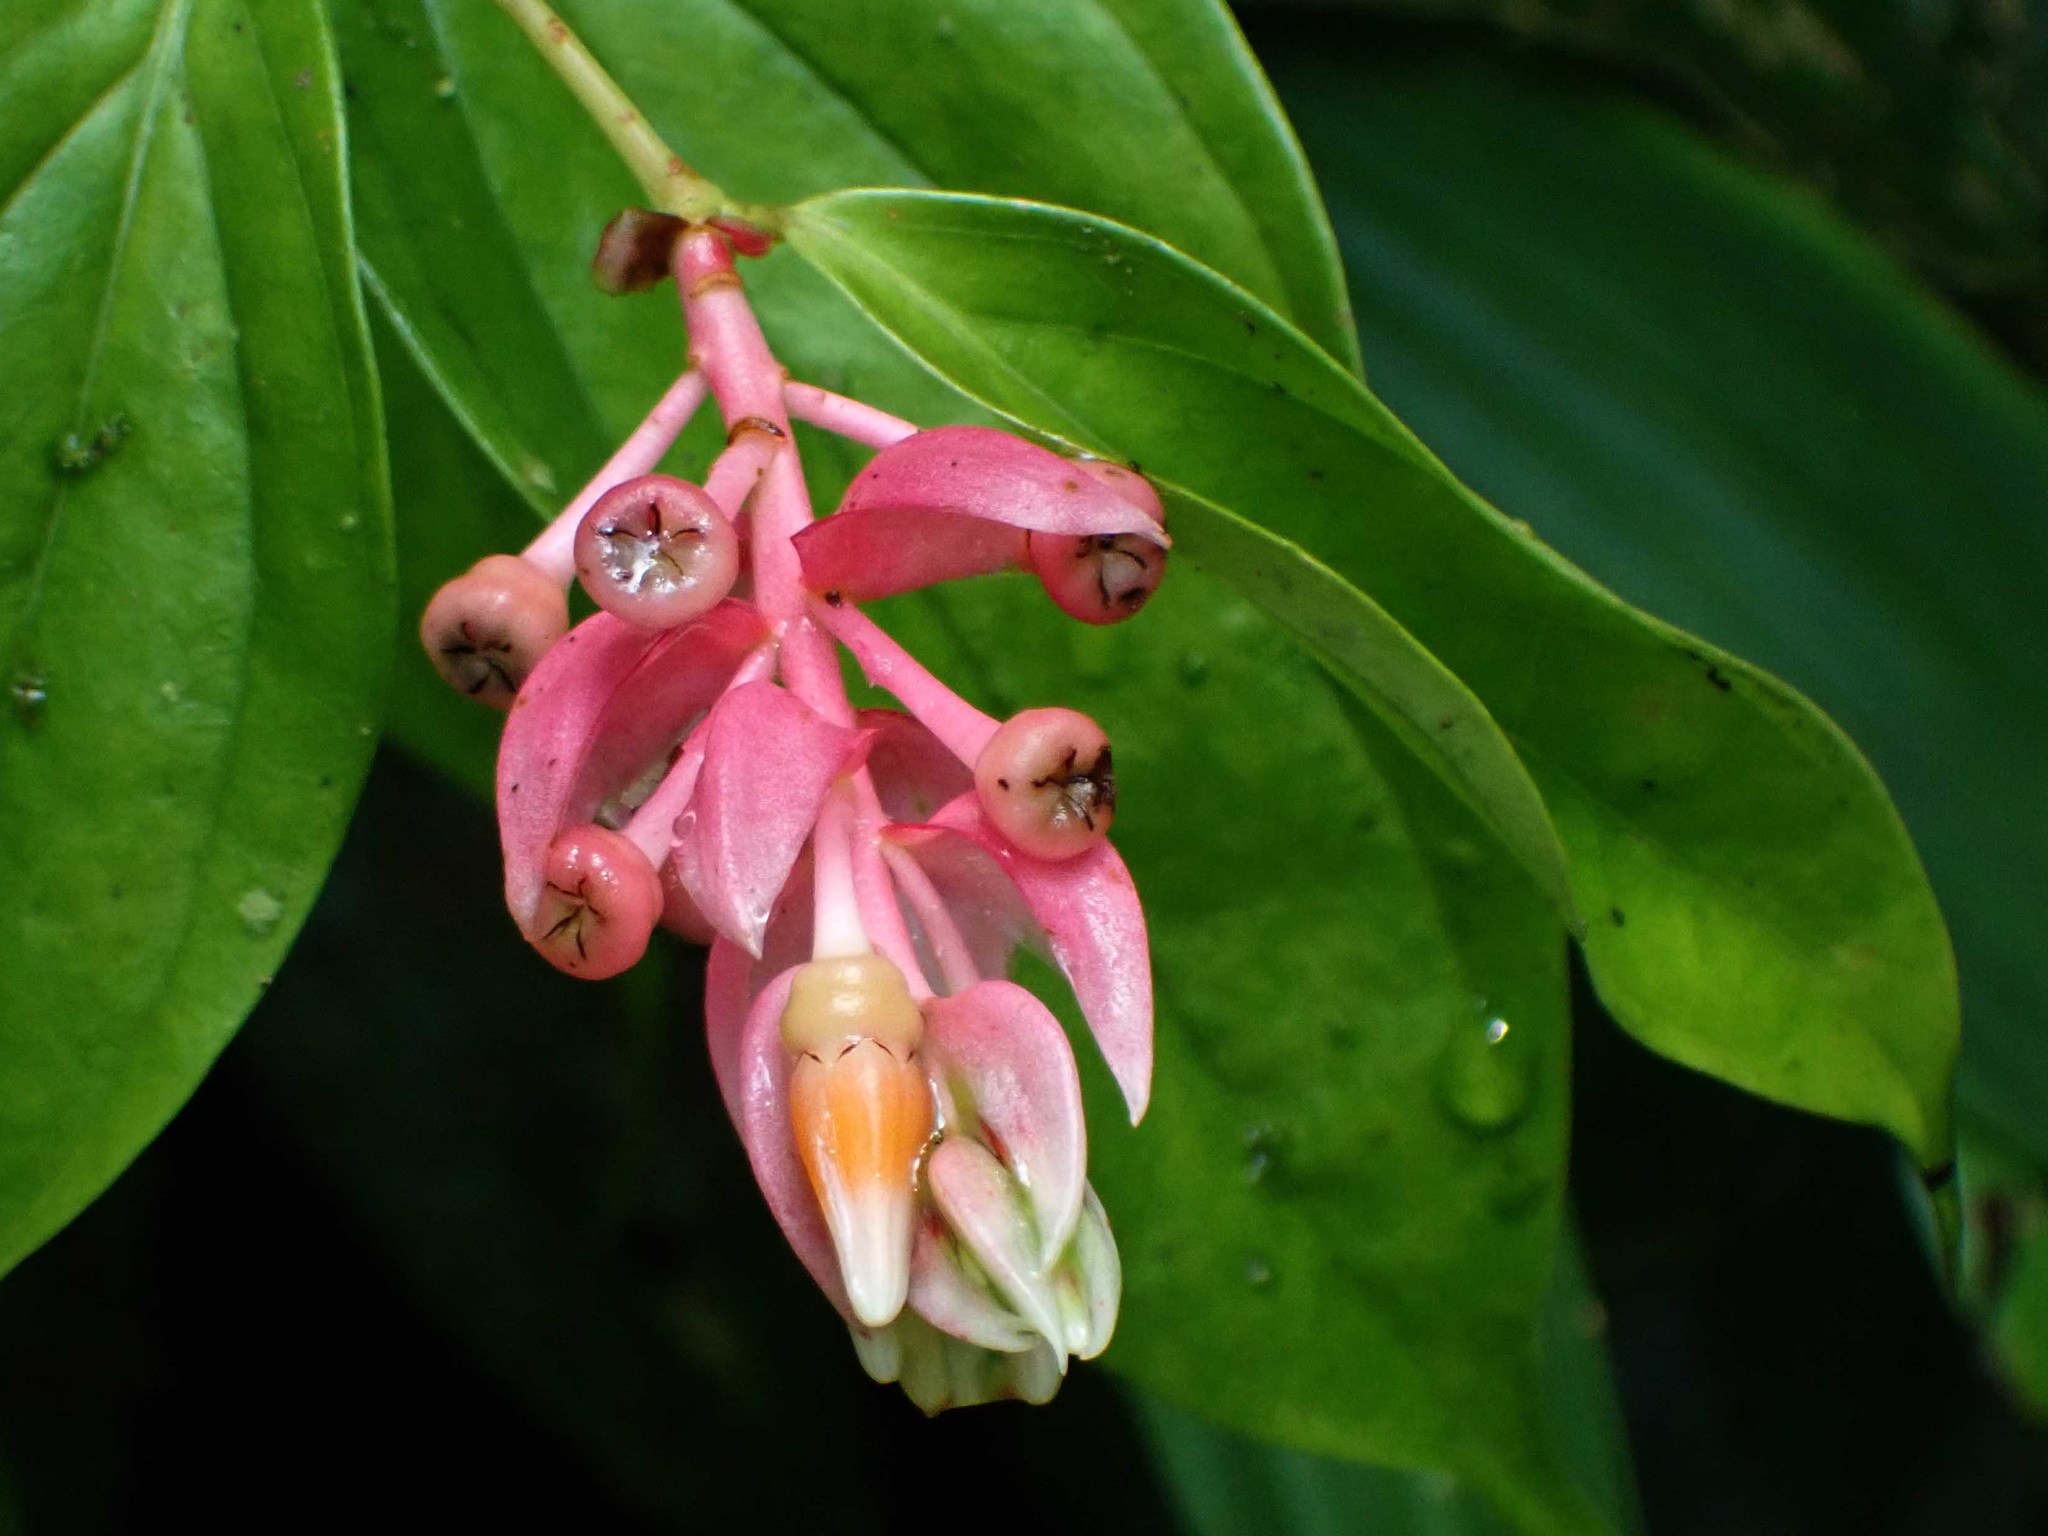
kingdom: Plantae
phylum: Tracheophyta
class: Magnoliopsida
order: Ericales
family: Ericaceae
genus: Cavendishia
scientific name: Cavendishia quereme
